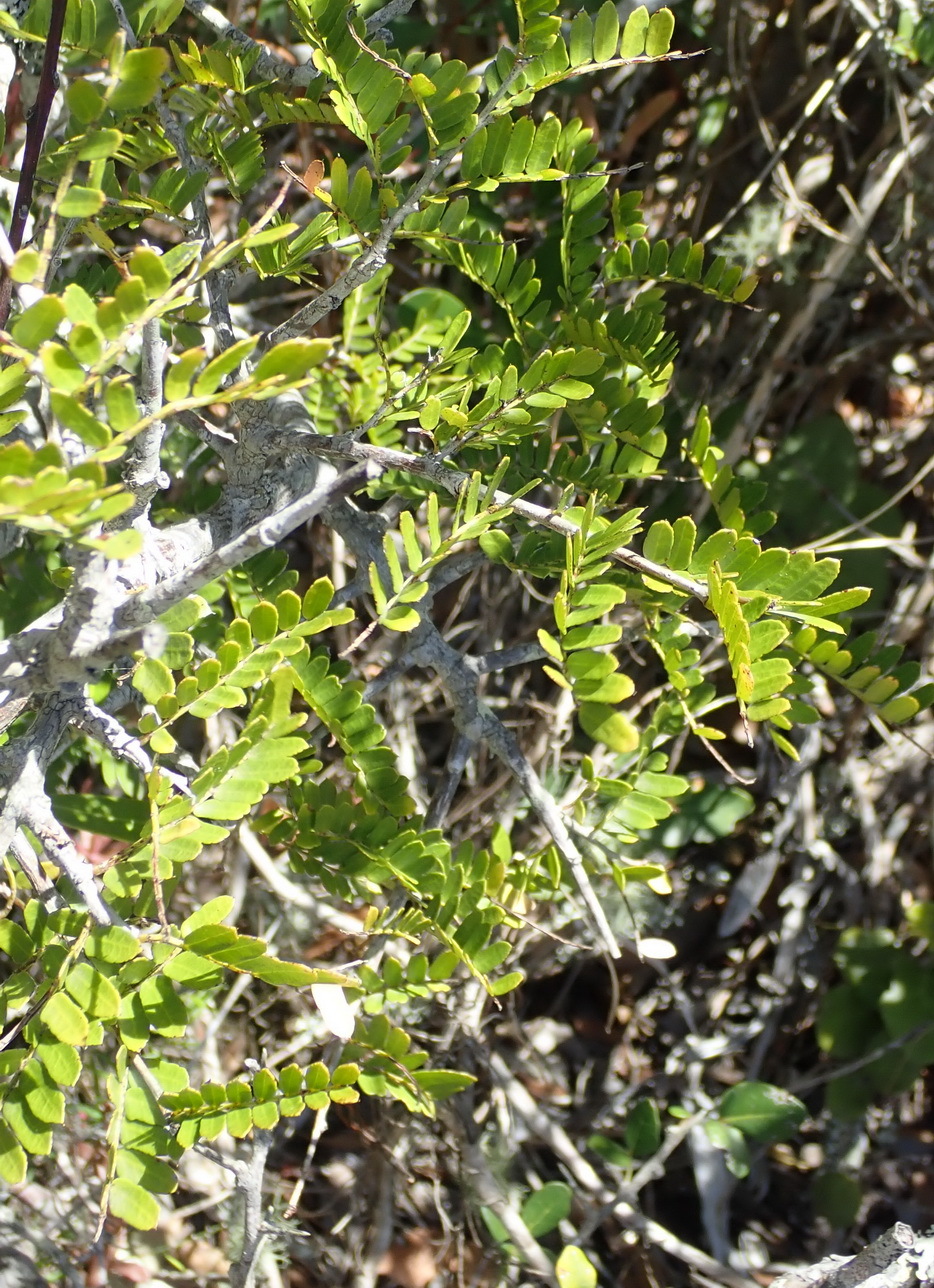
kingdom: Plantae
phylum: Tracheophyta
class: Magnoliopsida
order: Fabales
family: Fabaceae
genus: Schotia
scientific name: Schotia afra
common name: Hottentot's bean
